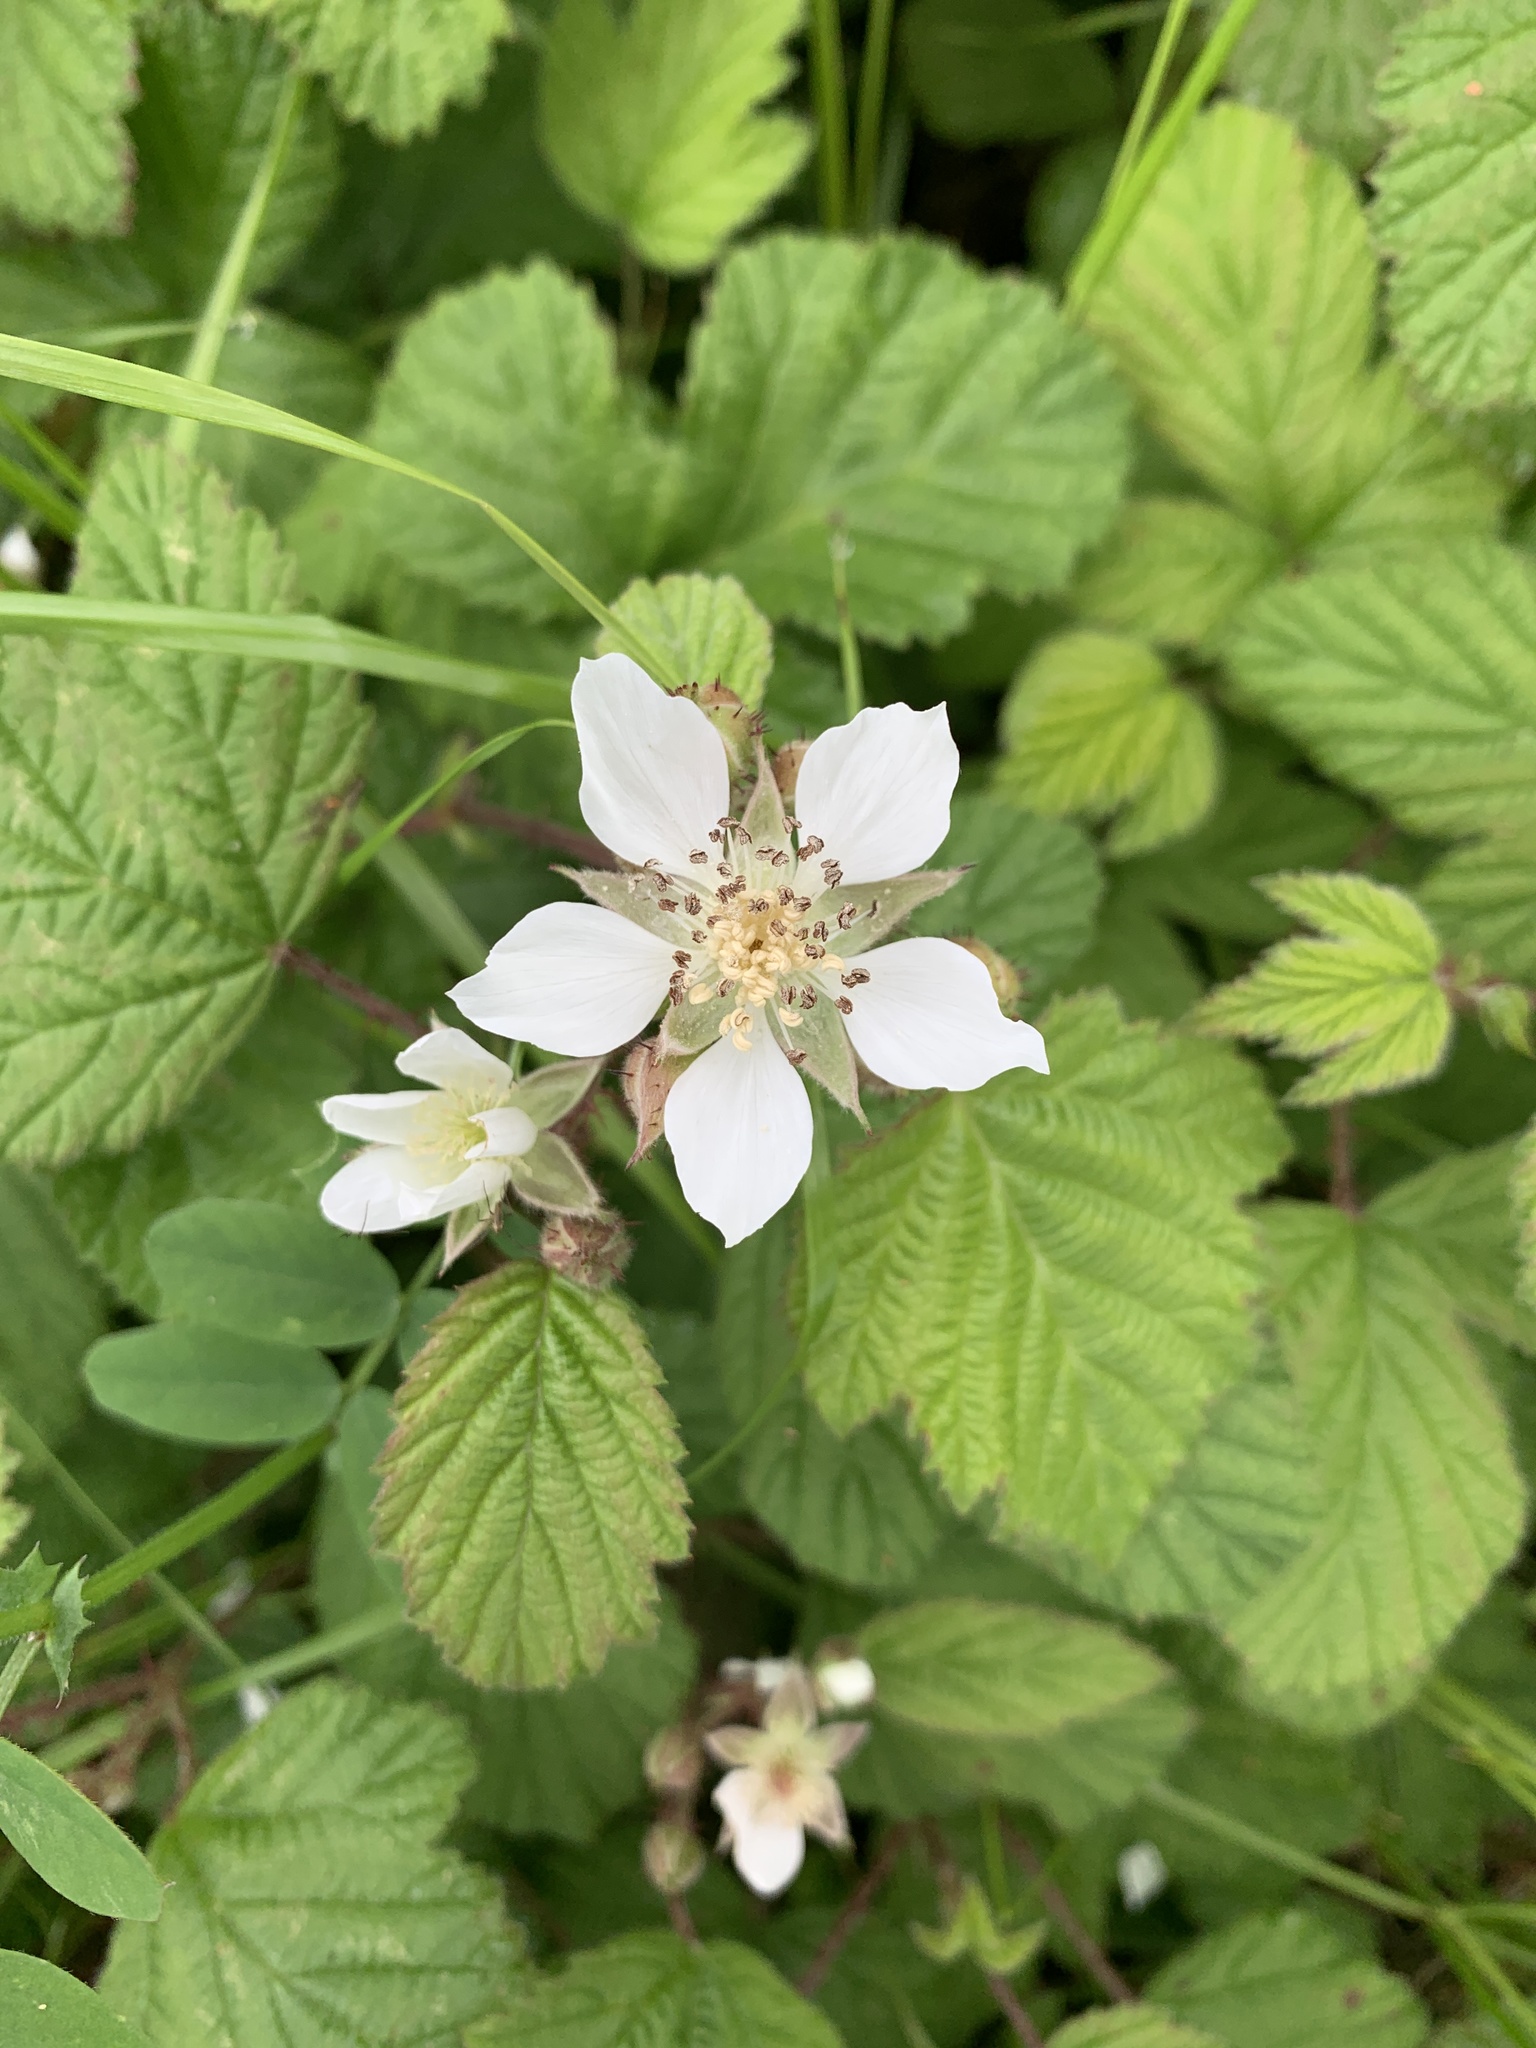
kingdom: Plantae
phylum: Tracheophyta
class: Magnoliopsida
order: Rosales
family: Rosaceae
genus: Rubus
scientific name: Rubus ursinus
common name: Pacific blackberry
